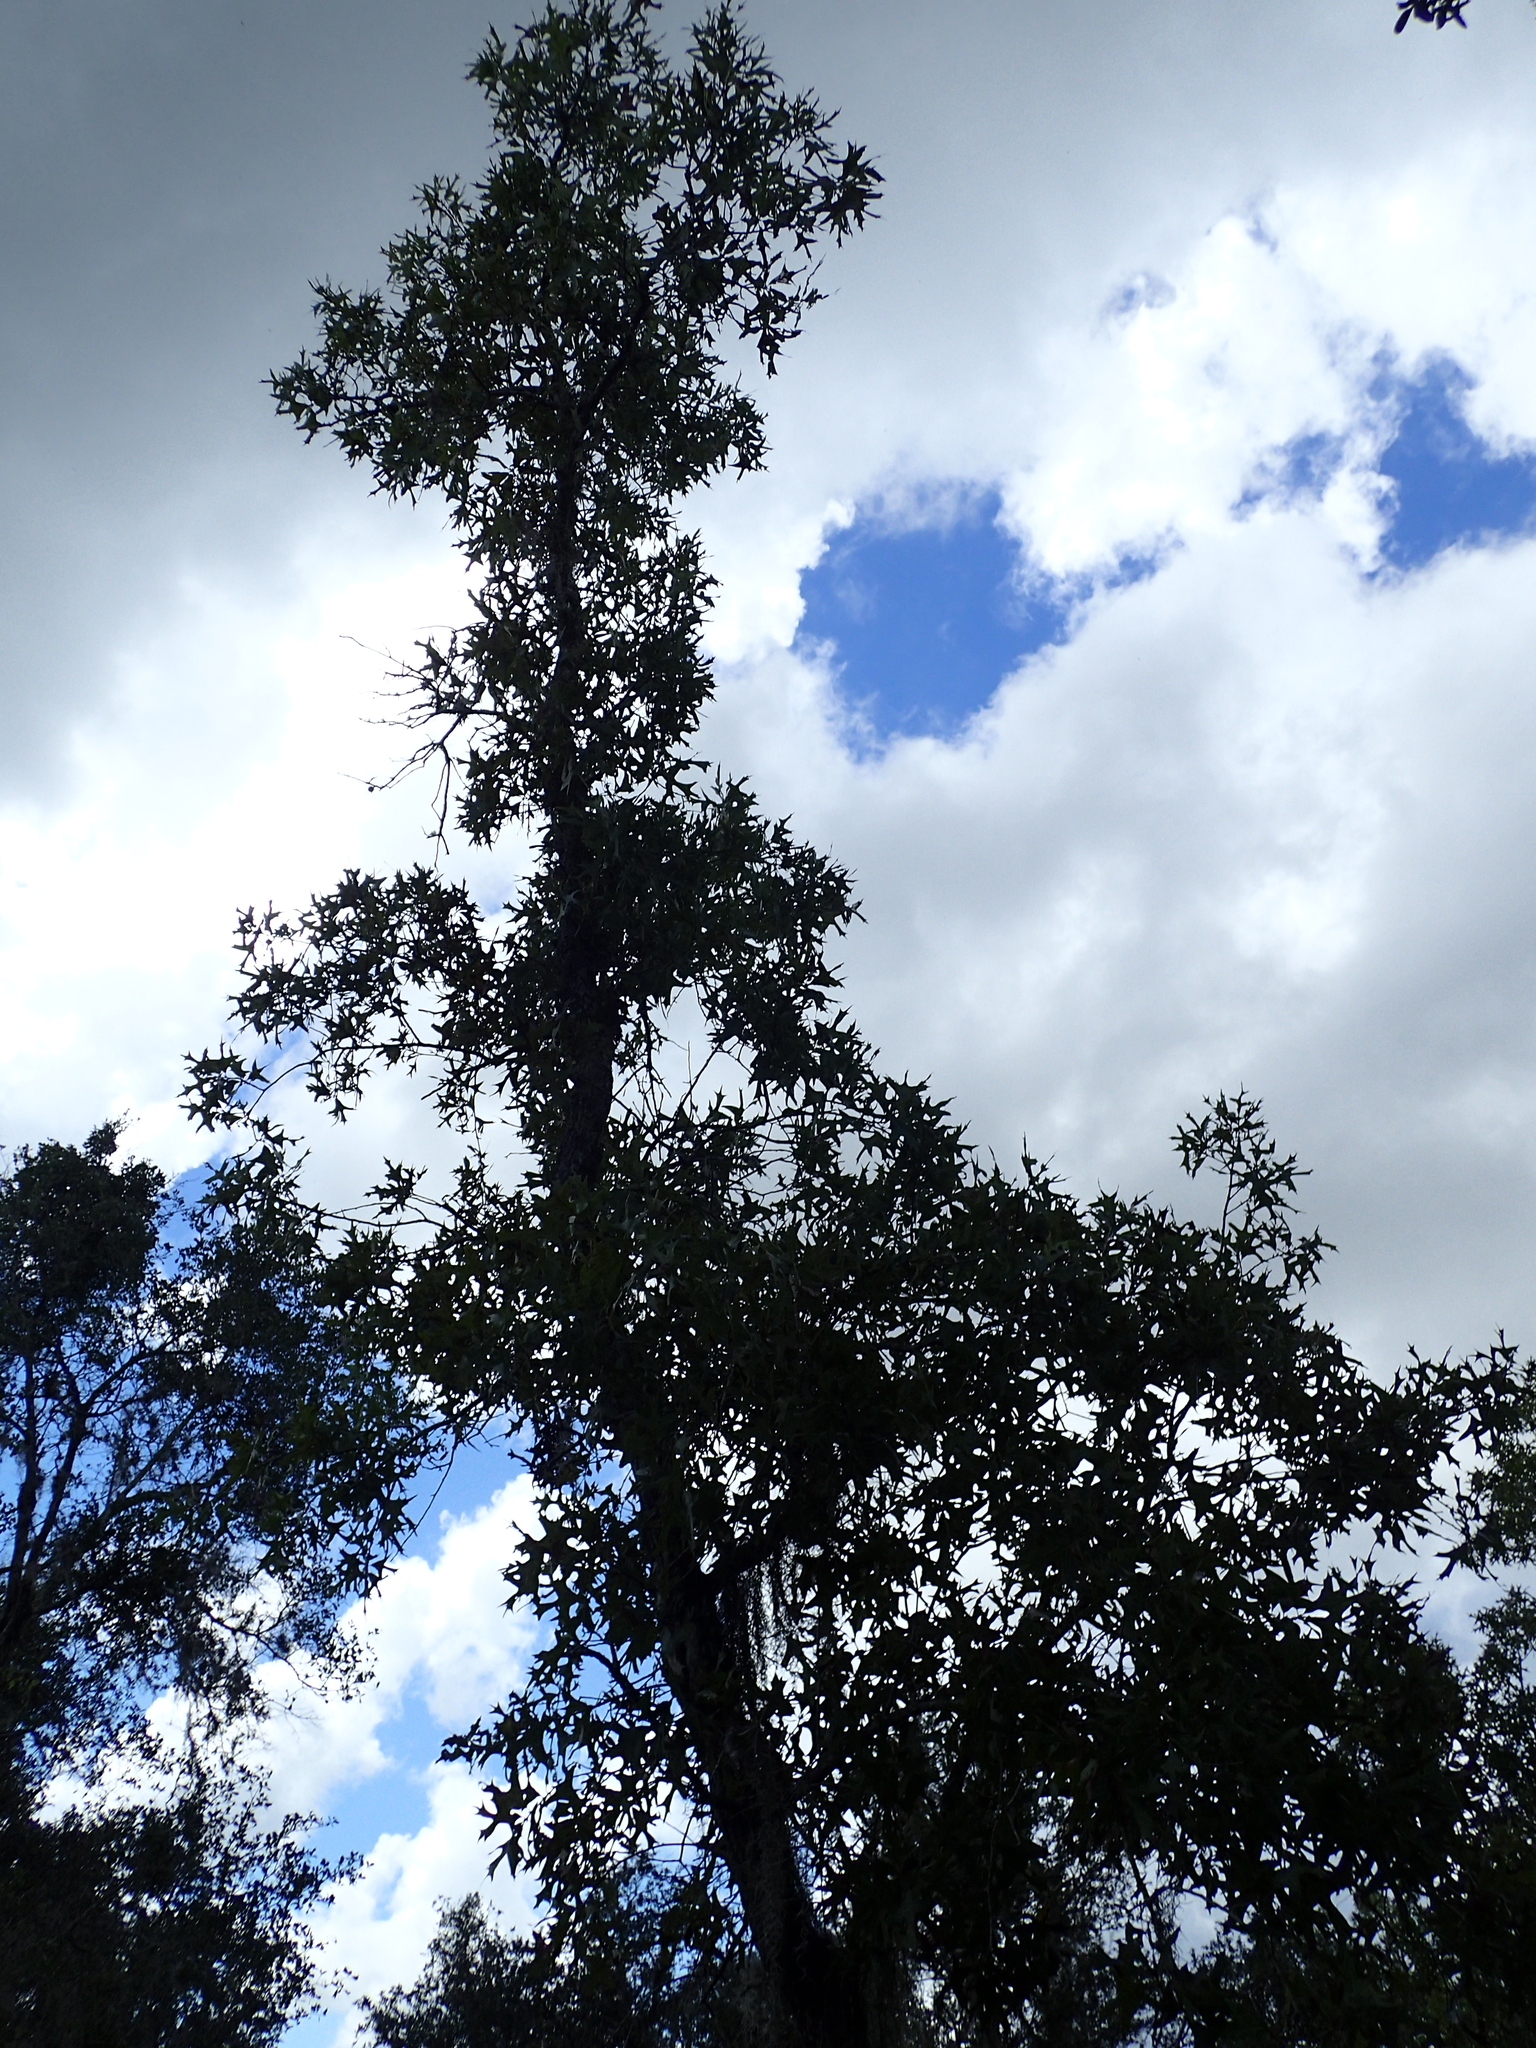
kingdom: Plantae
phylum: Tracheophyta
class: Magnoliopsida
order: Fagales
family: Fagaceae
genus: Quercus
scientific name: Quercus laevis
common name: Turkey oak
